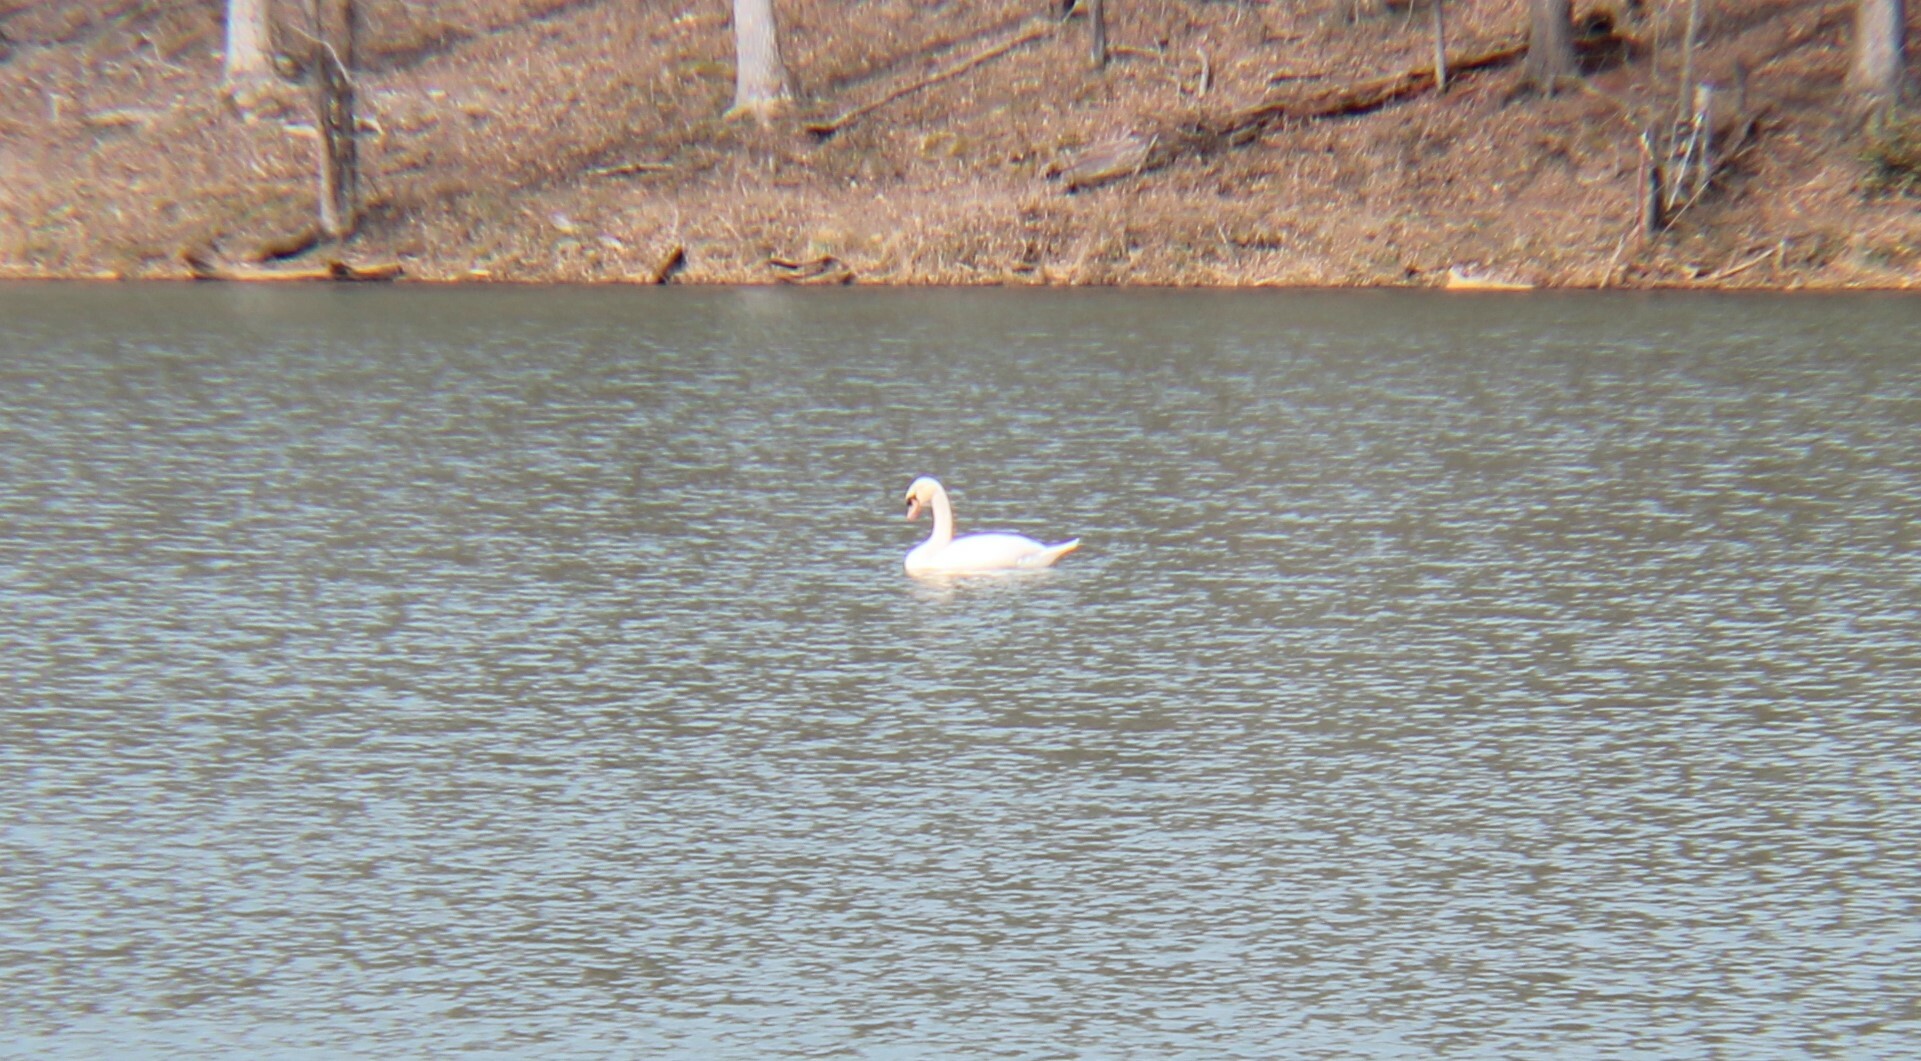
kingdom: Animalia
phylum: Chordata
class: Aves
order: Anseriformes
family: Anatidae
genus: Cygnus
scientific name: Cygnus olor
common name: Mute swan
